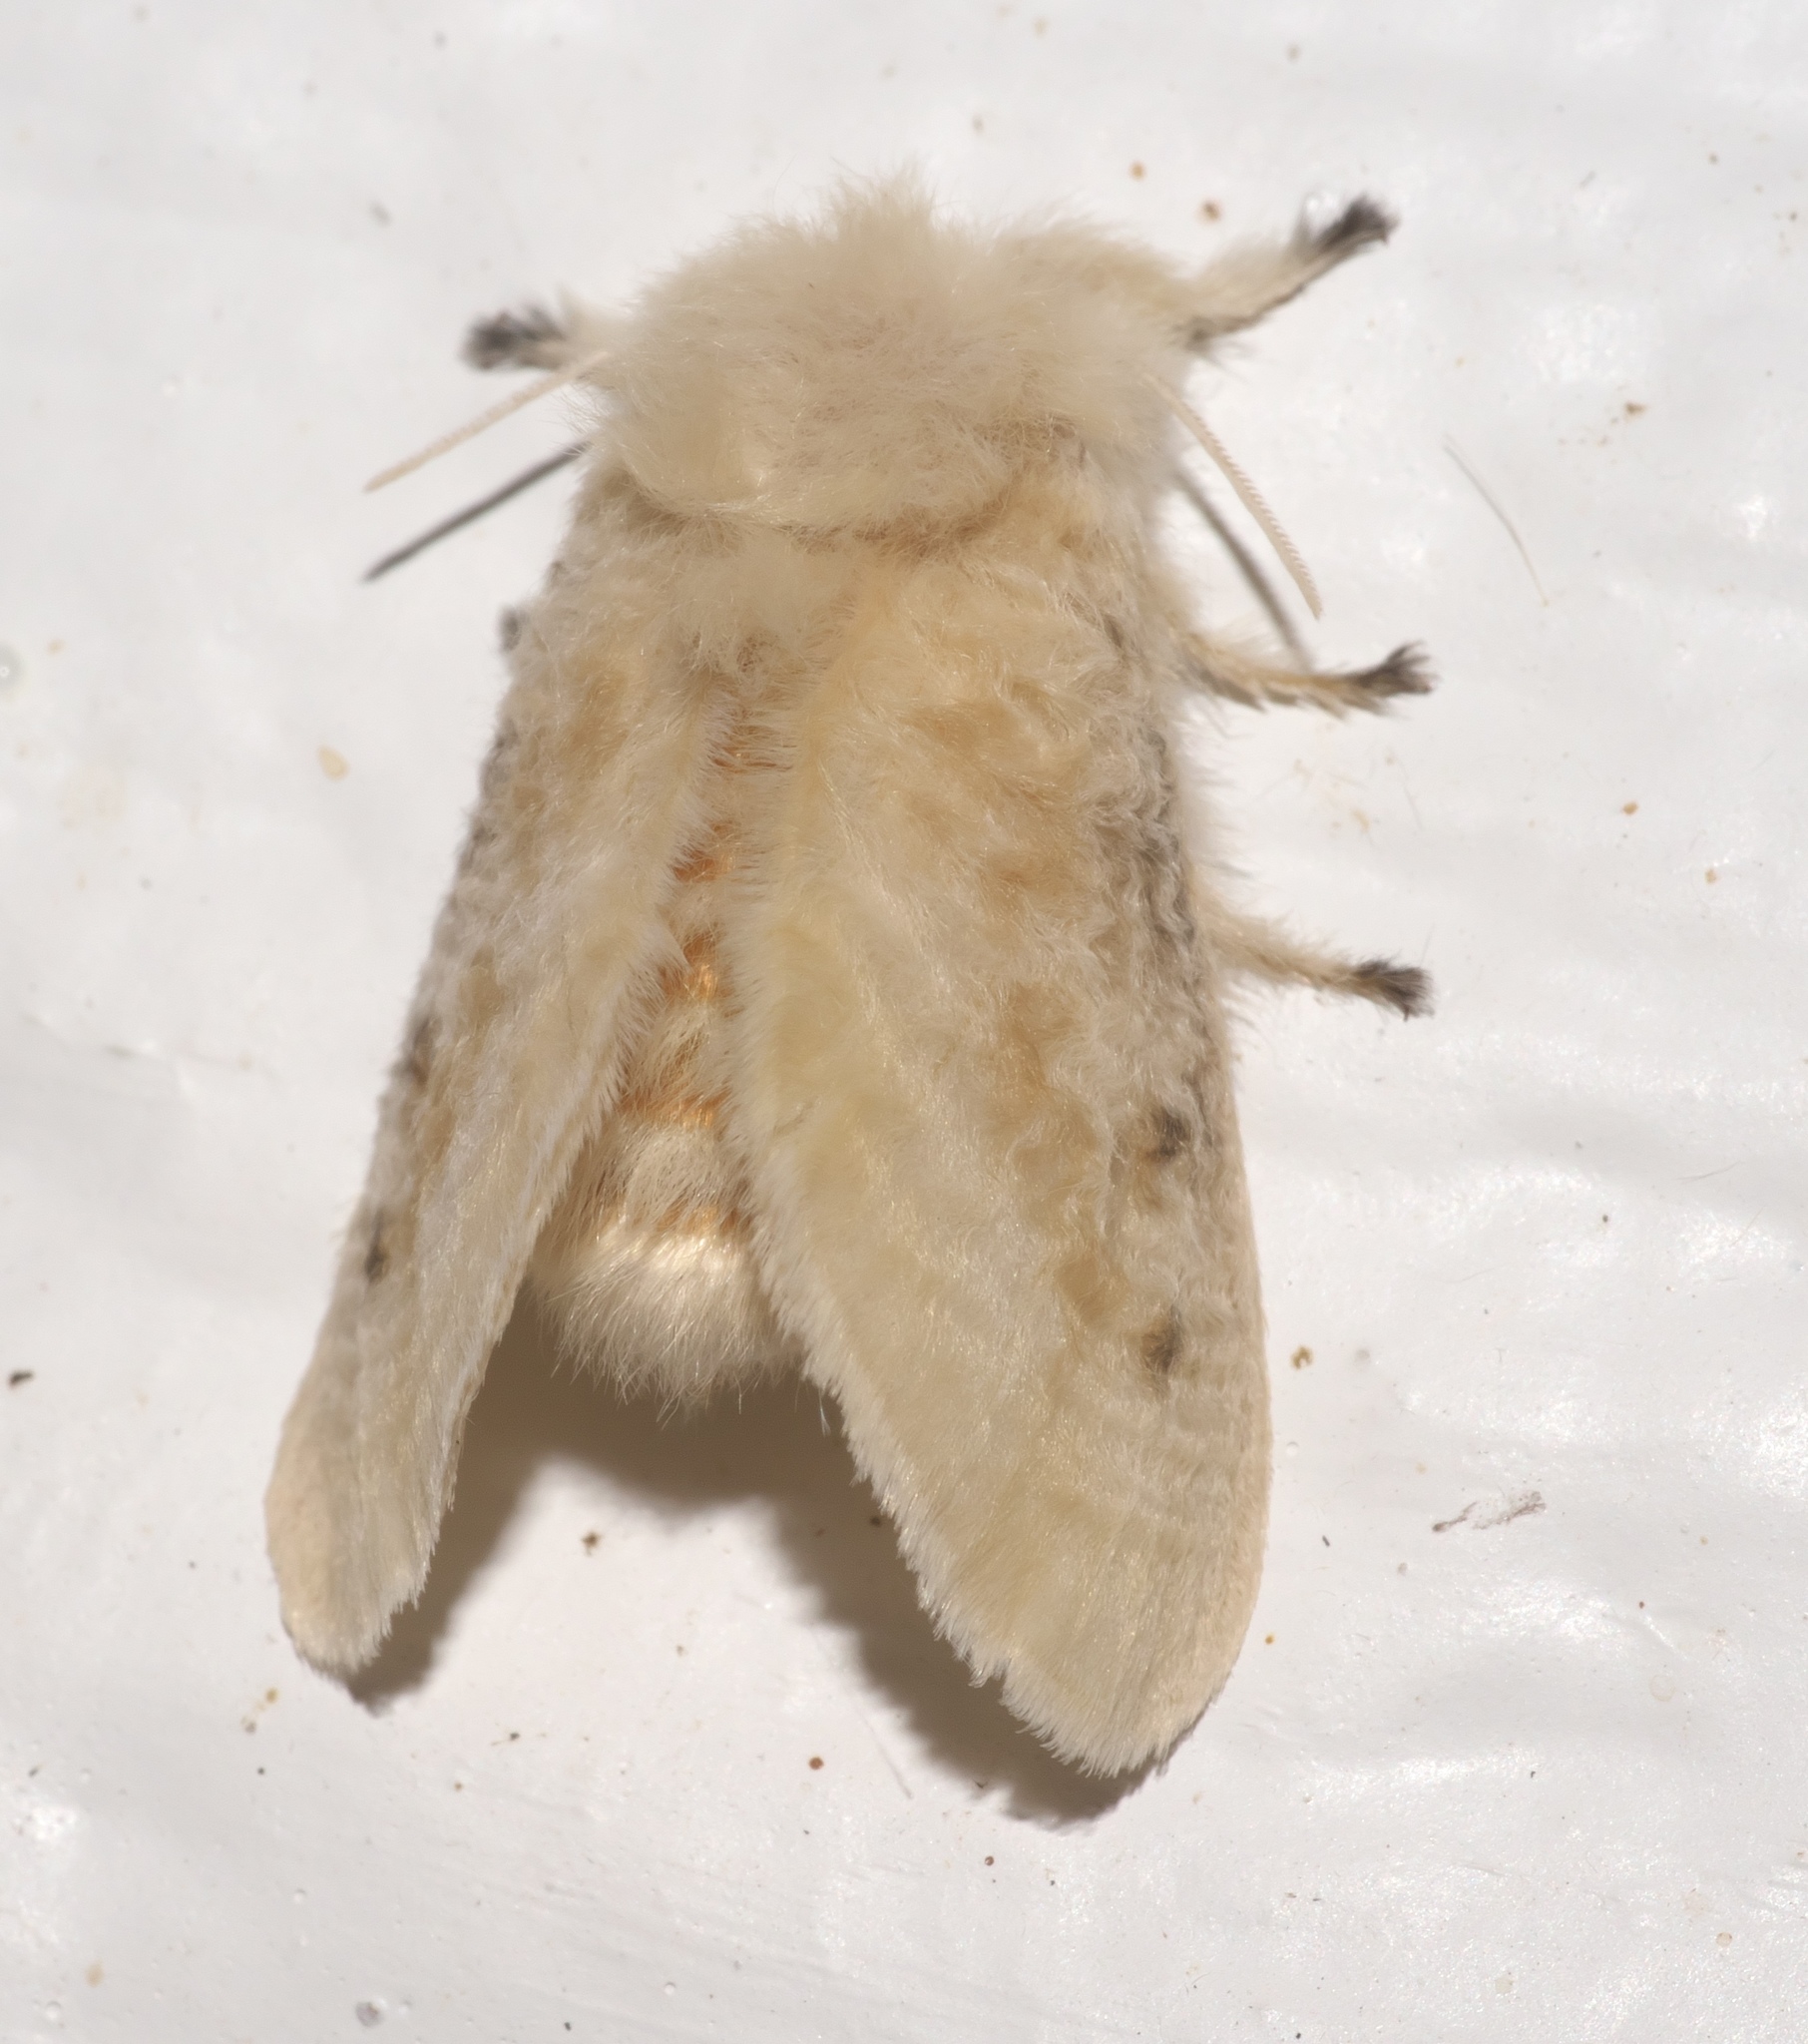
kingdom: Animalia
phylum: Arthropoda
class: Insecta
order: Lepidoptera
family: Megalopygidae
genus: Megalopyge
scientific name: Megalopyge crispata
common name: Black-waved flannel moth
